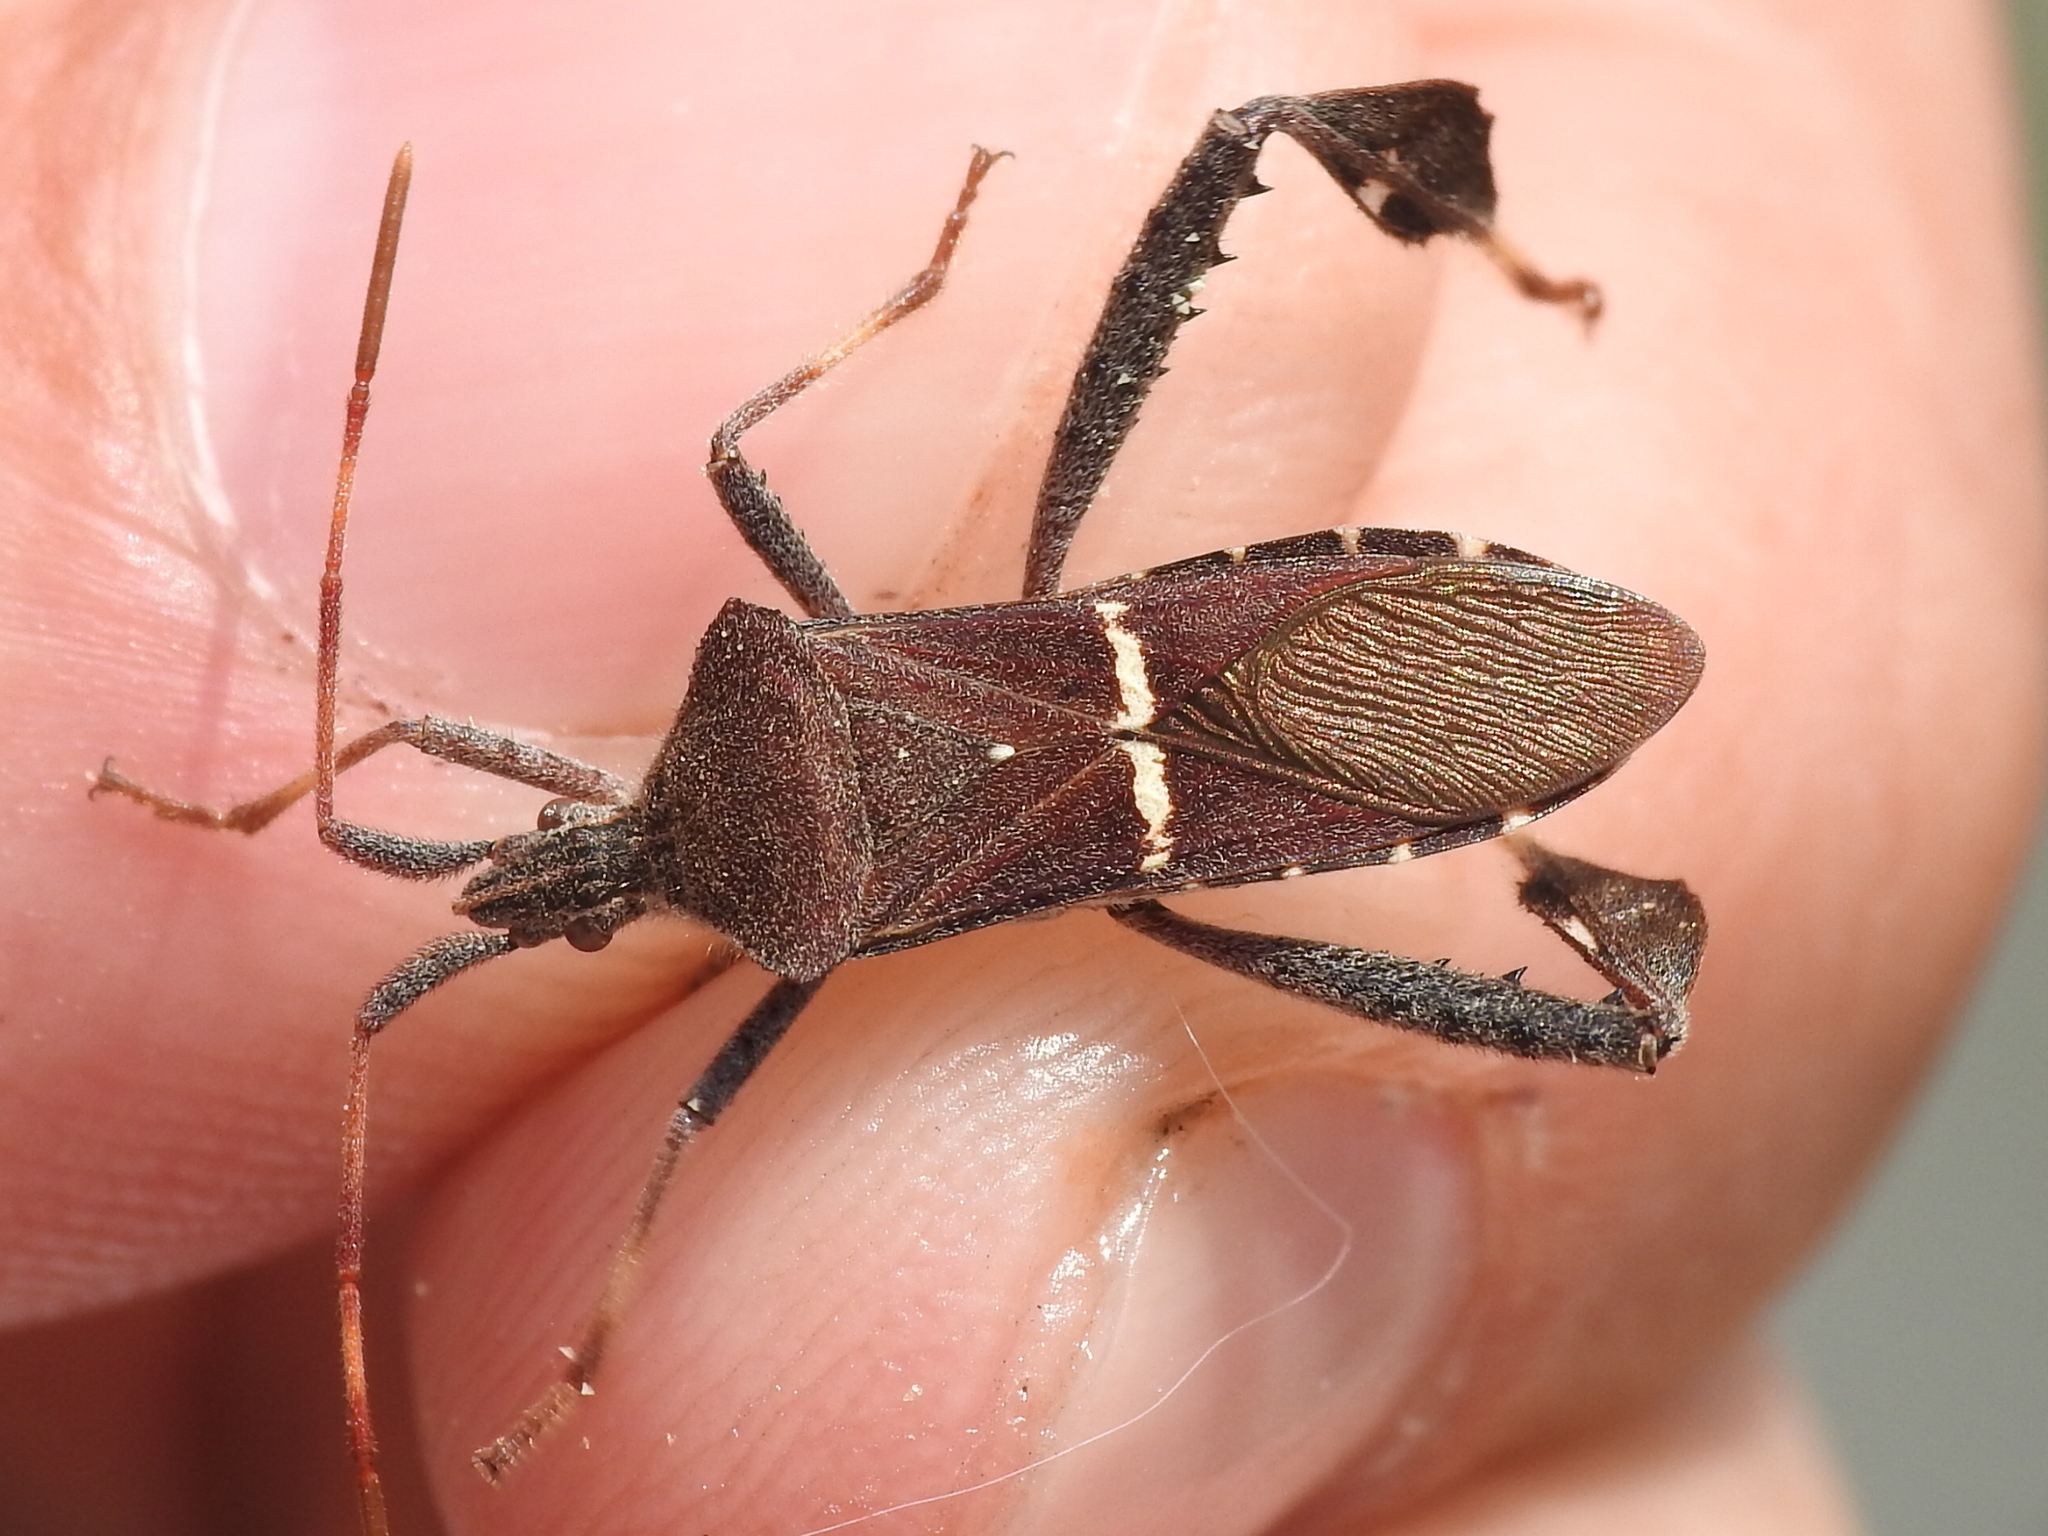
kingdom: Animalia
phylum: Arthropoda
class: Insecta
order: Hemiptera
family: Coreidae
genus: Leptoglossus
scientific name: Leptoglossus phyllopus
